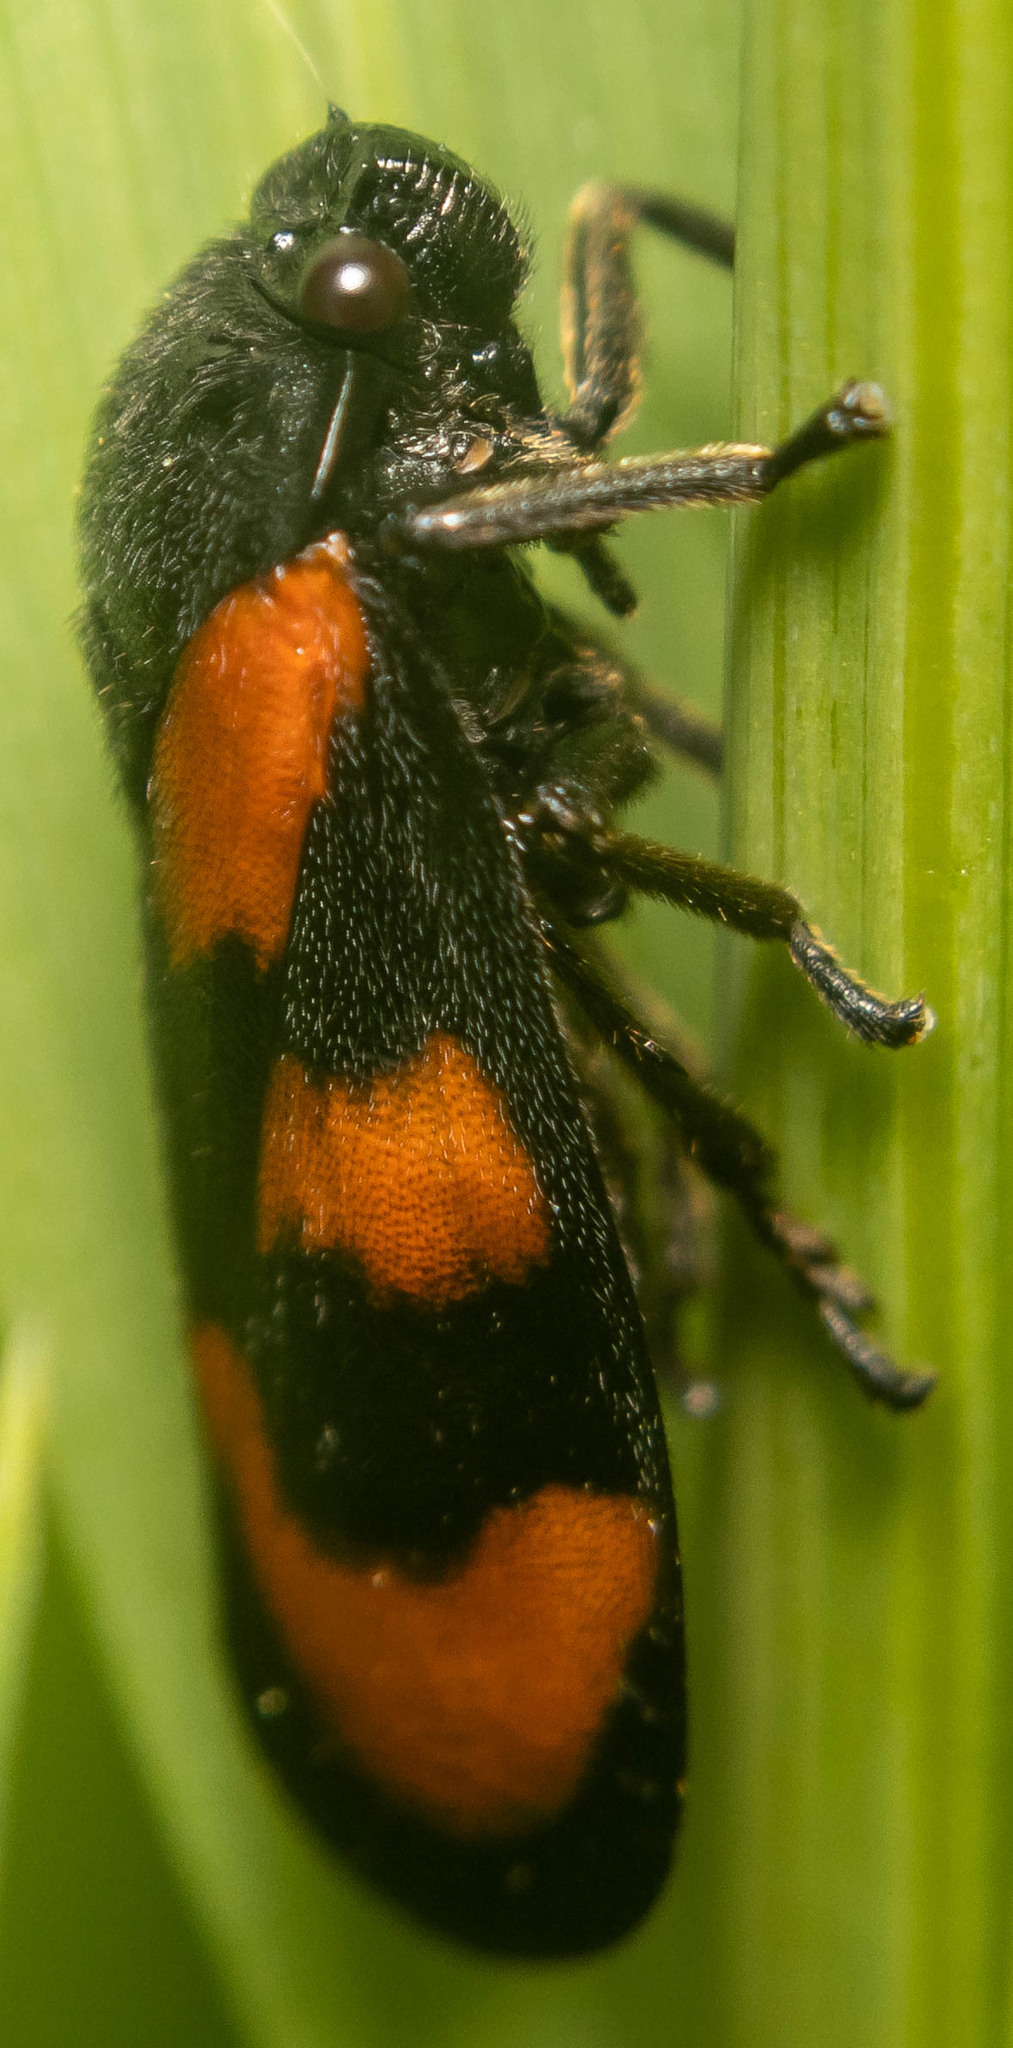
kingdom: Animalia
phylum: Arthropoda
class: Insecta
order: Hemiptera
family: Cercopidae
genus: Cercopis
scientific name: Cercopis vulnerata
